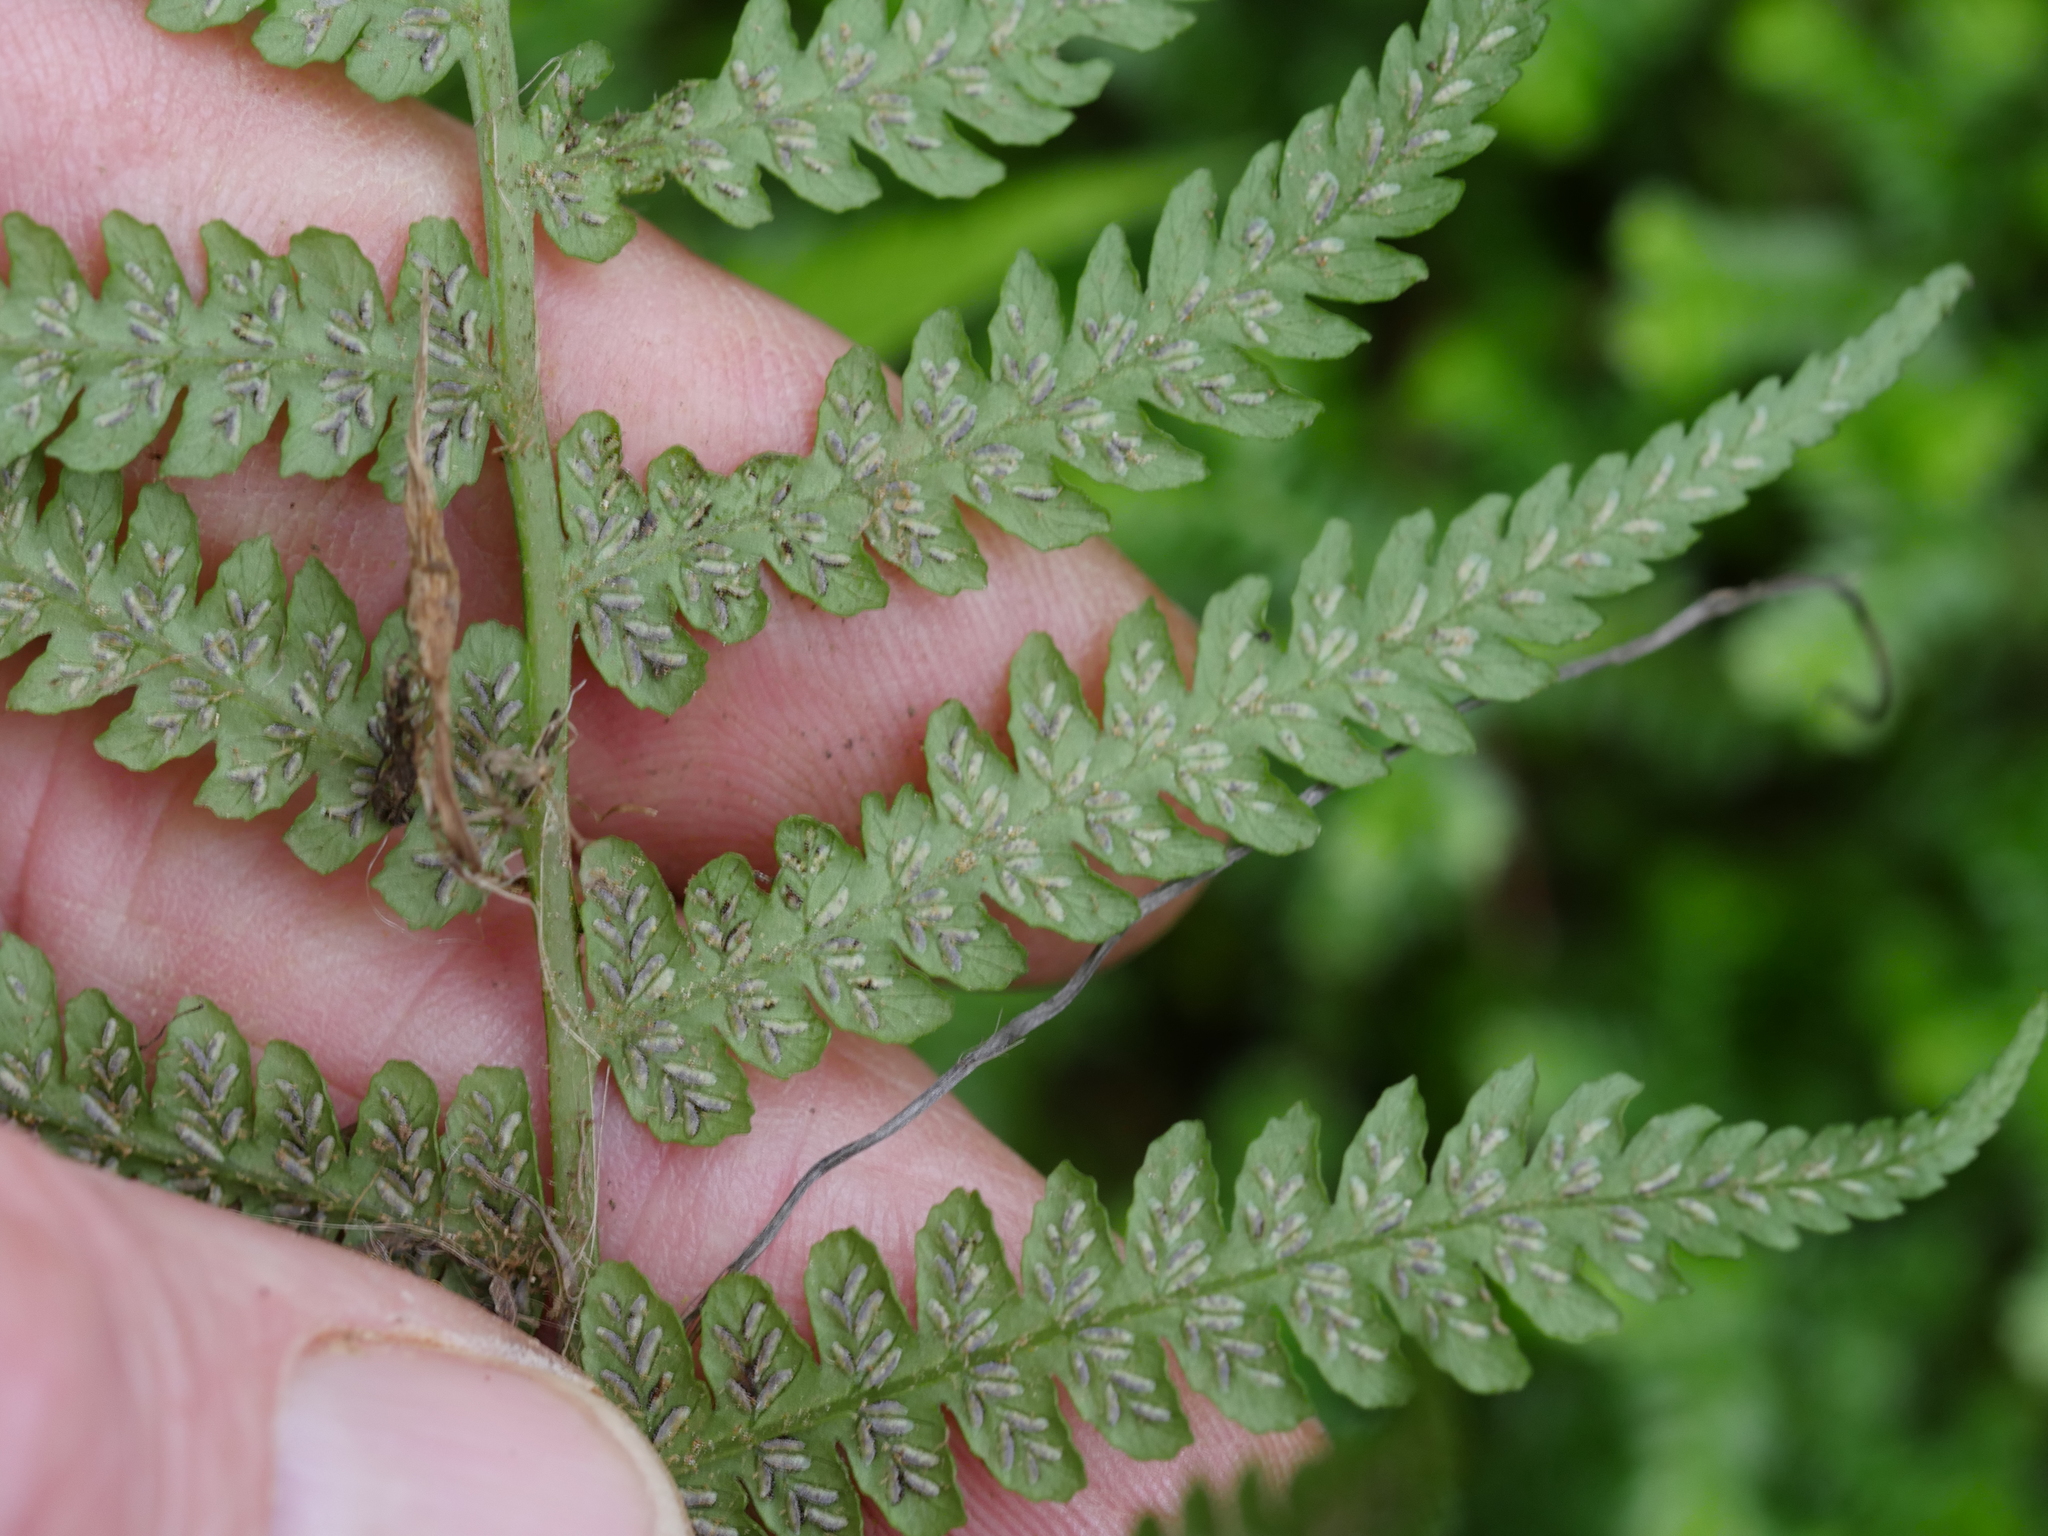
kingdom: Plantae
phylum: Tracheophyta
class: Polypodiopsida
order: Polypodiales
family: Athyriaceae
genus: Deparia
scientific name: Deparia petersenii
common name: Japanese false spleenwort
